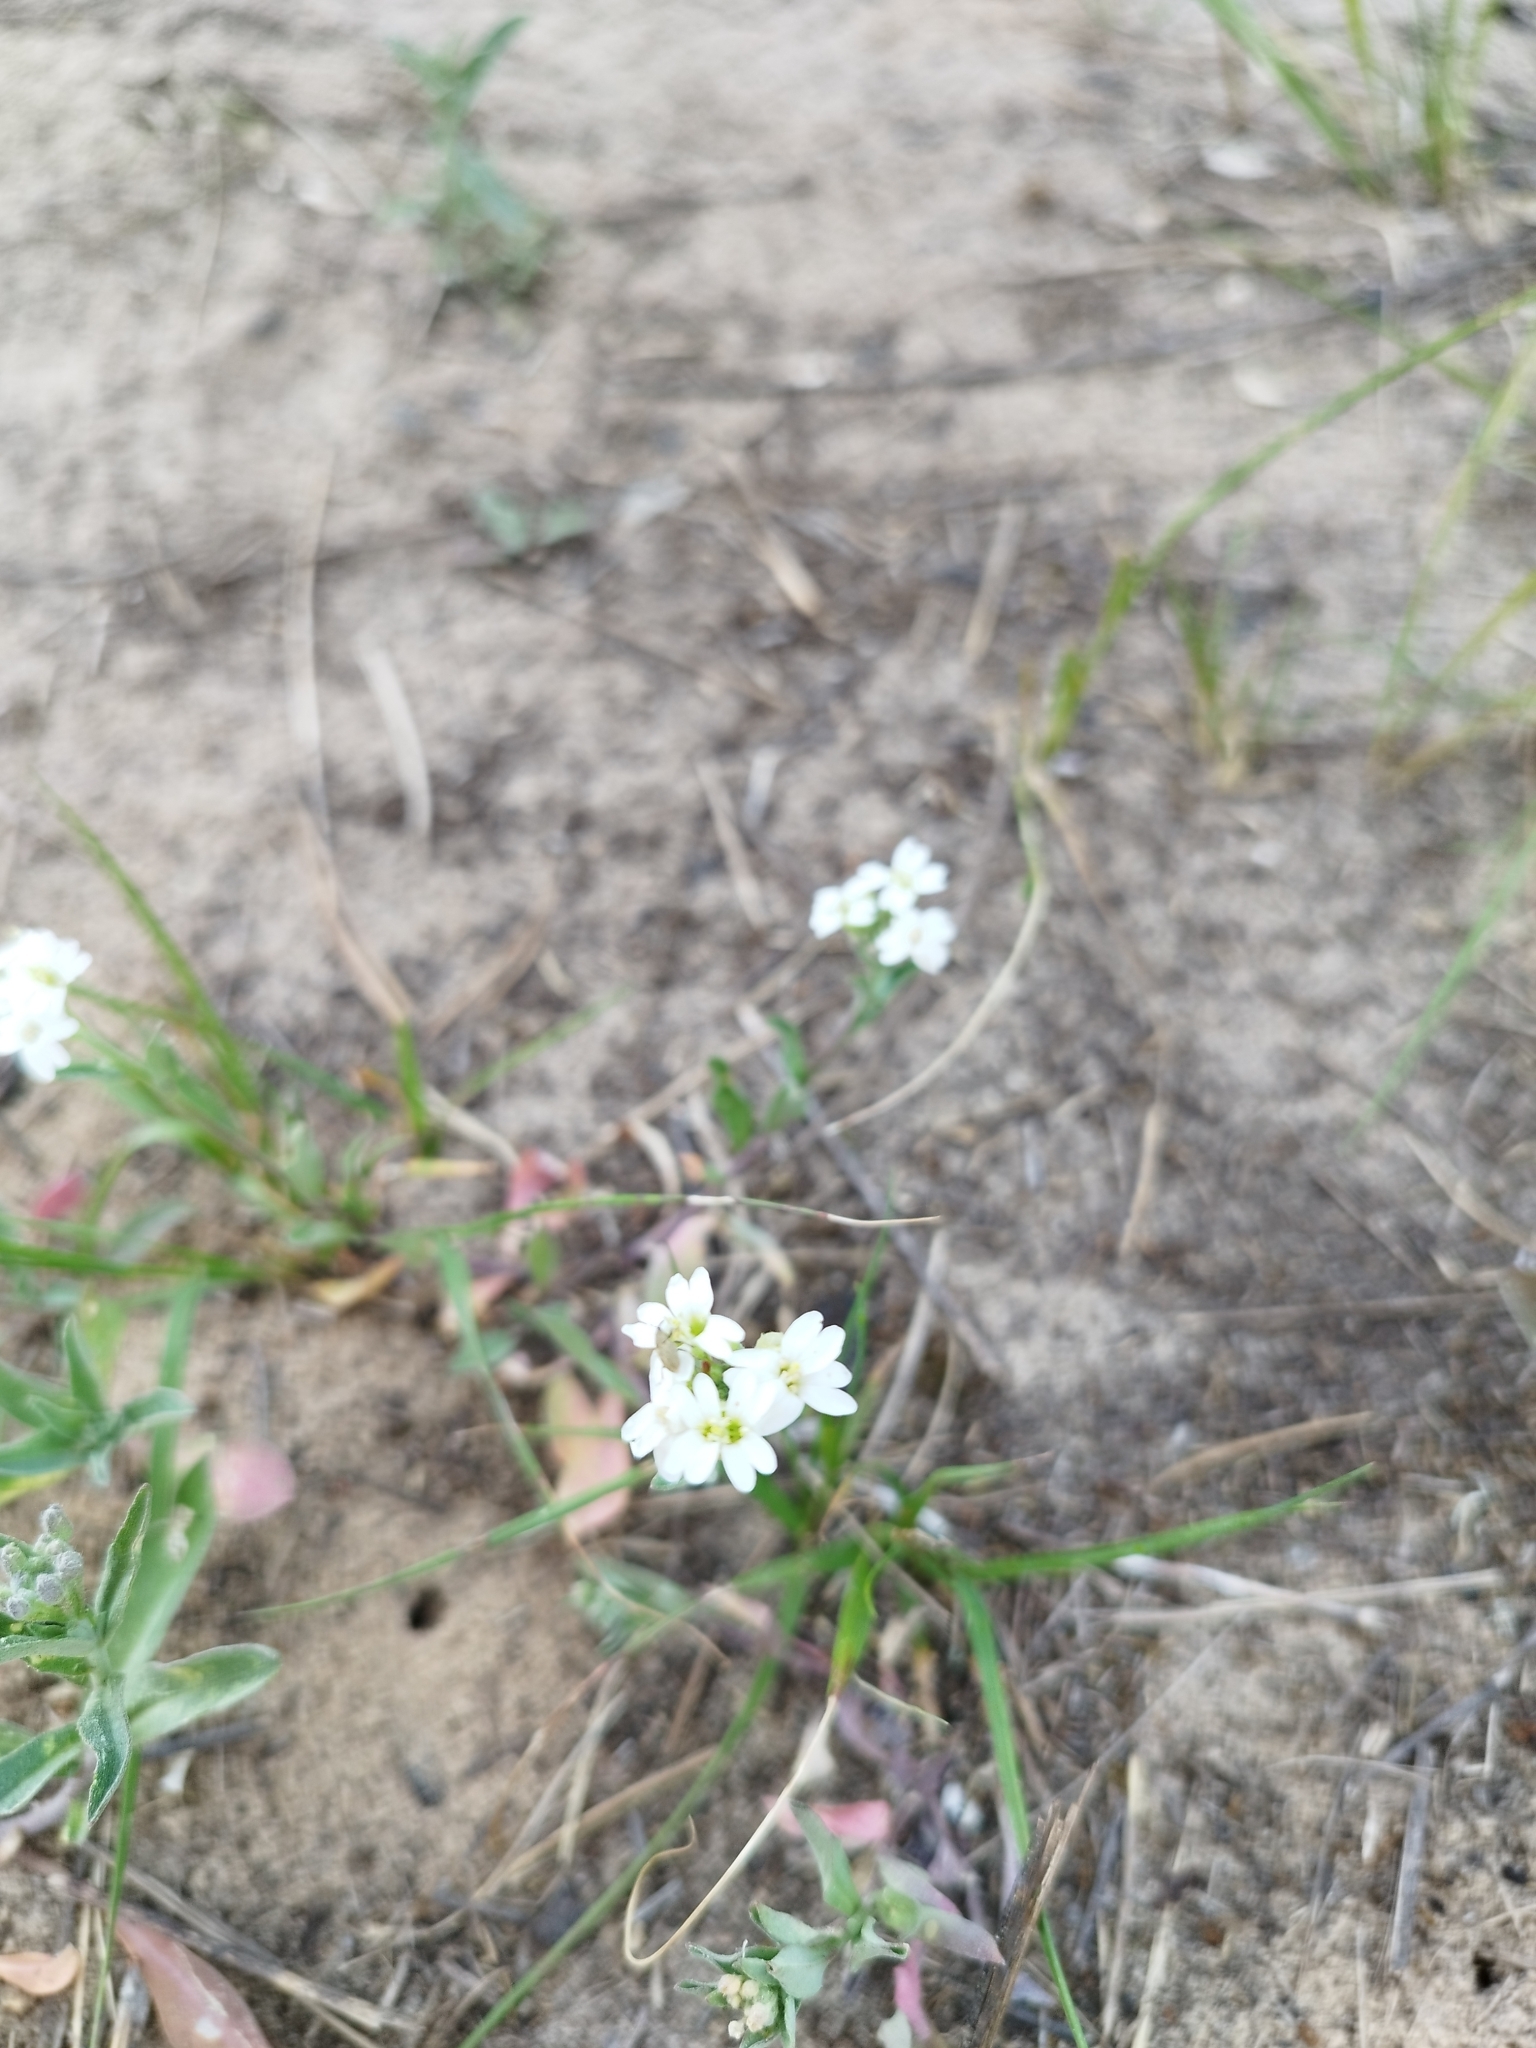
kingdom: Plantae
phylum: Tracheophyta
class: Magnoliopsida
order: Brassicales
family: Brassicaceae
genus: Berteroa
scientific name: Berteroa incana
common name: Hoary alison
